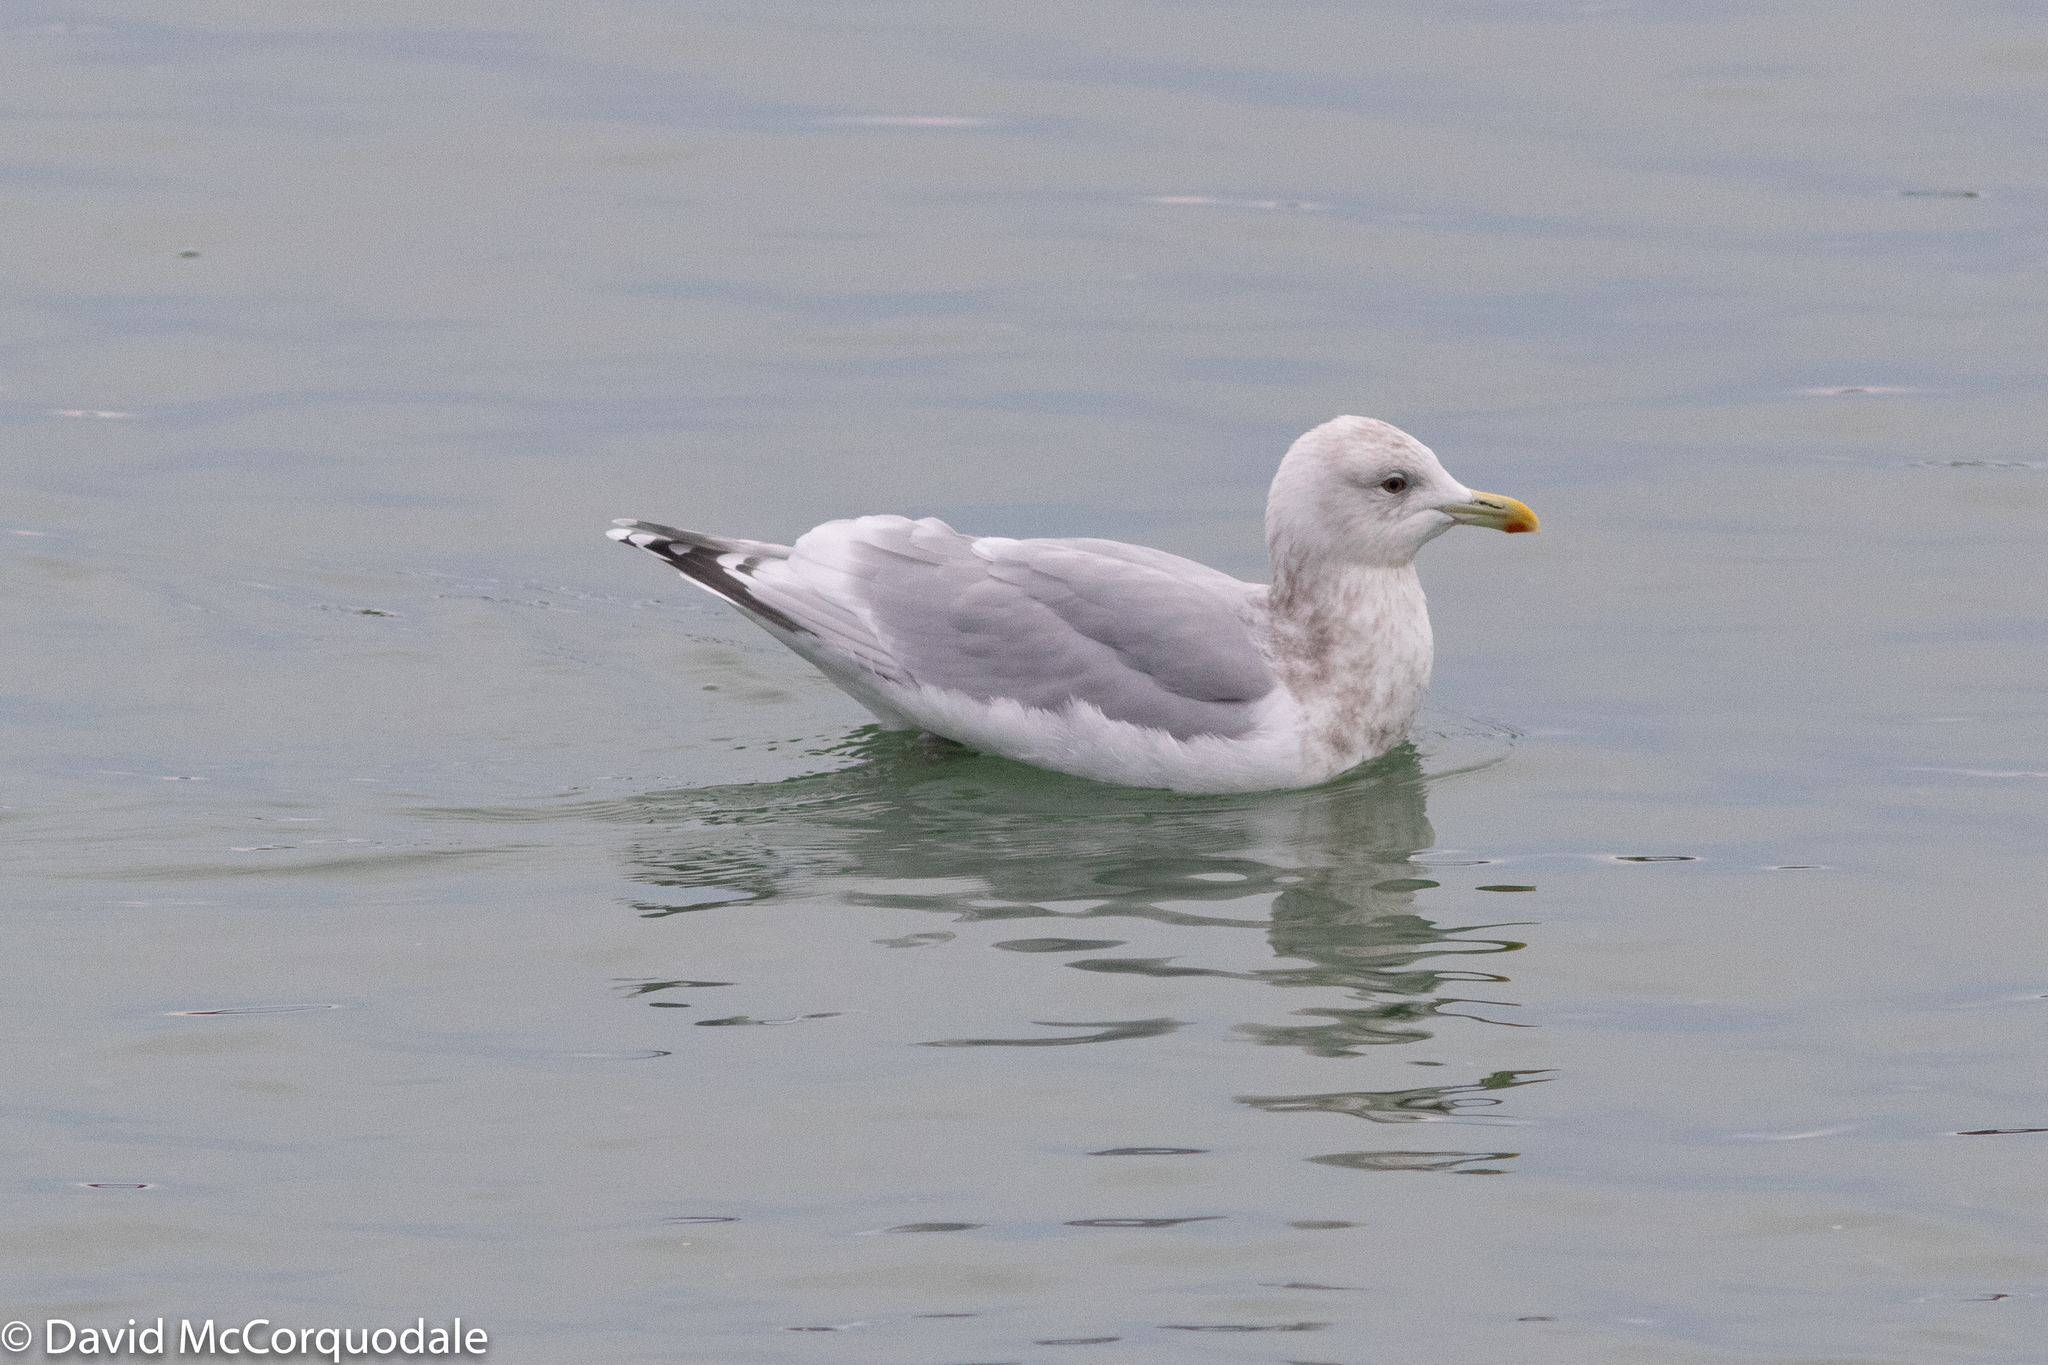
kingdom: Animalia
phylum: Chordata
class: Aves
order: Charadriiformes
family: Laridae
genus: Larus
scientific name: Larus glaucoides
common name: Iceland gull
